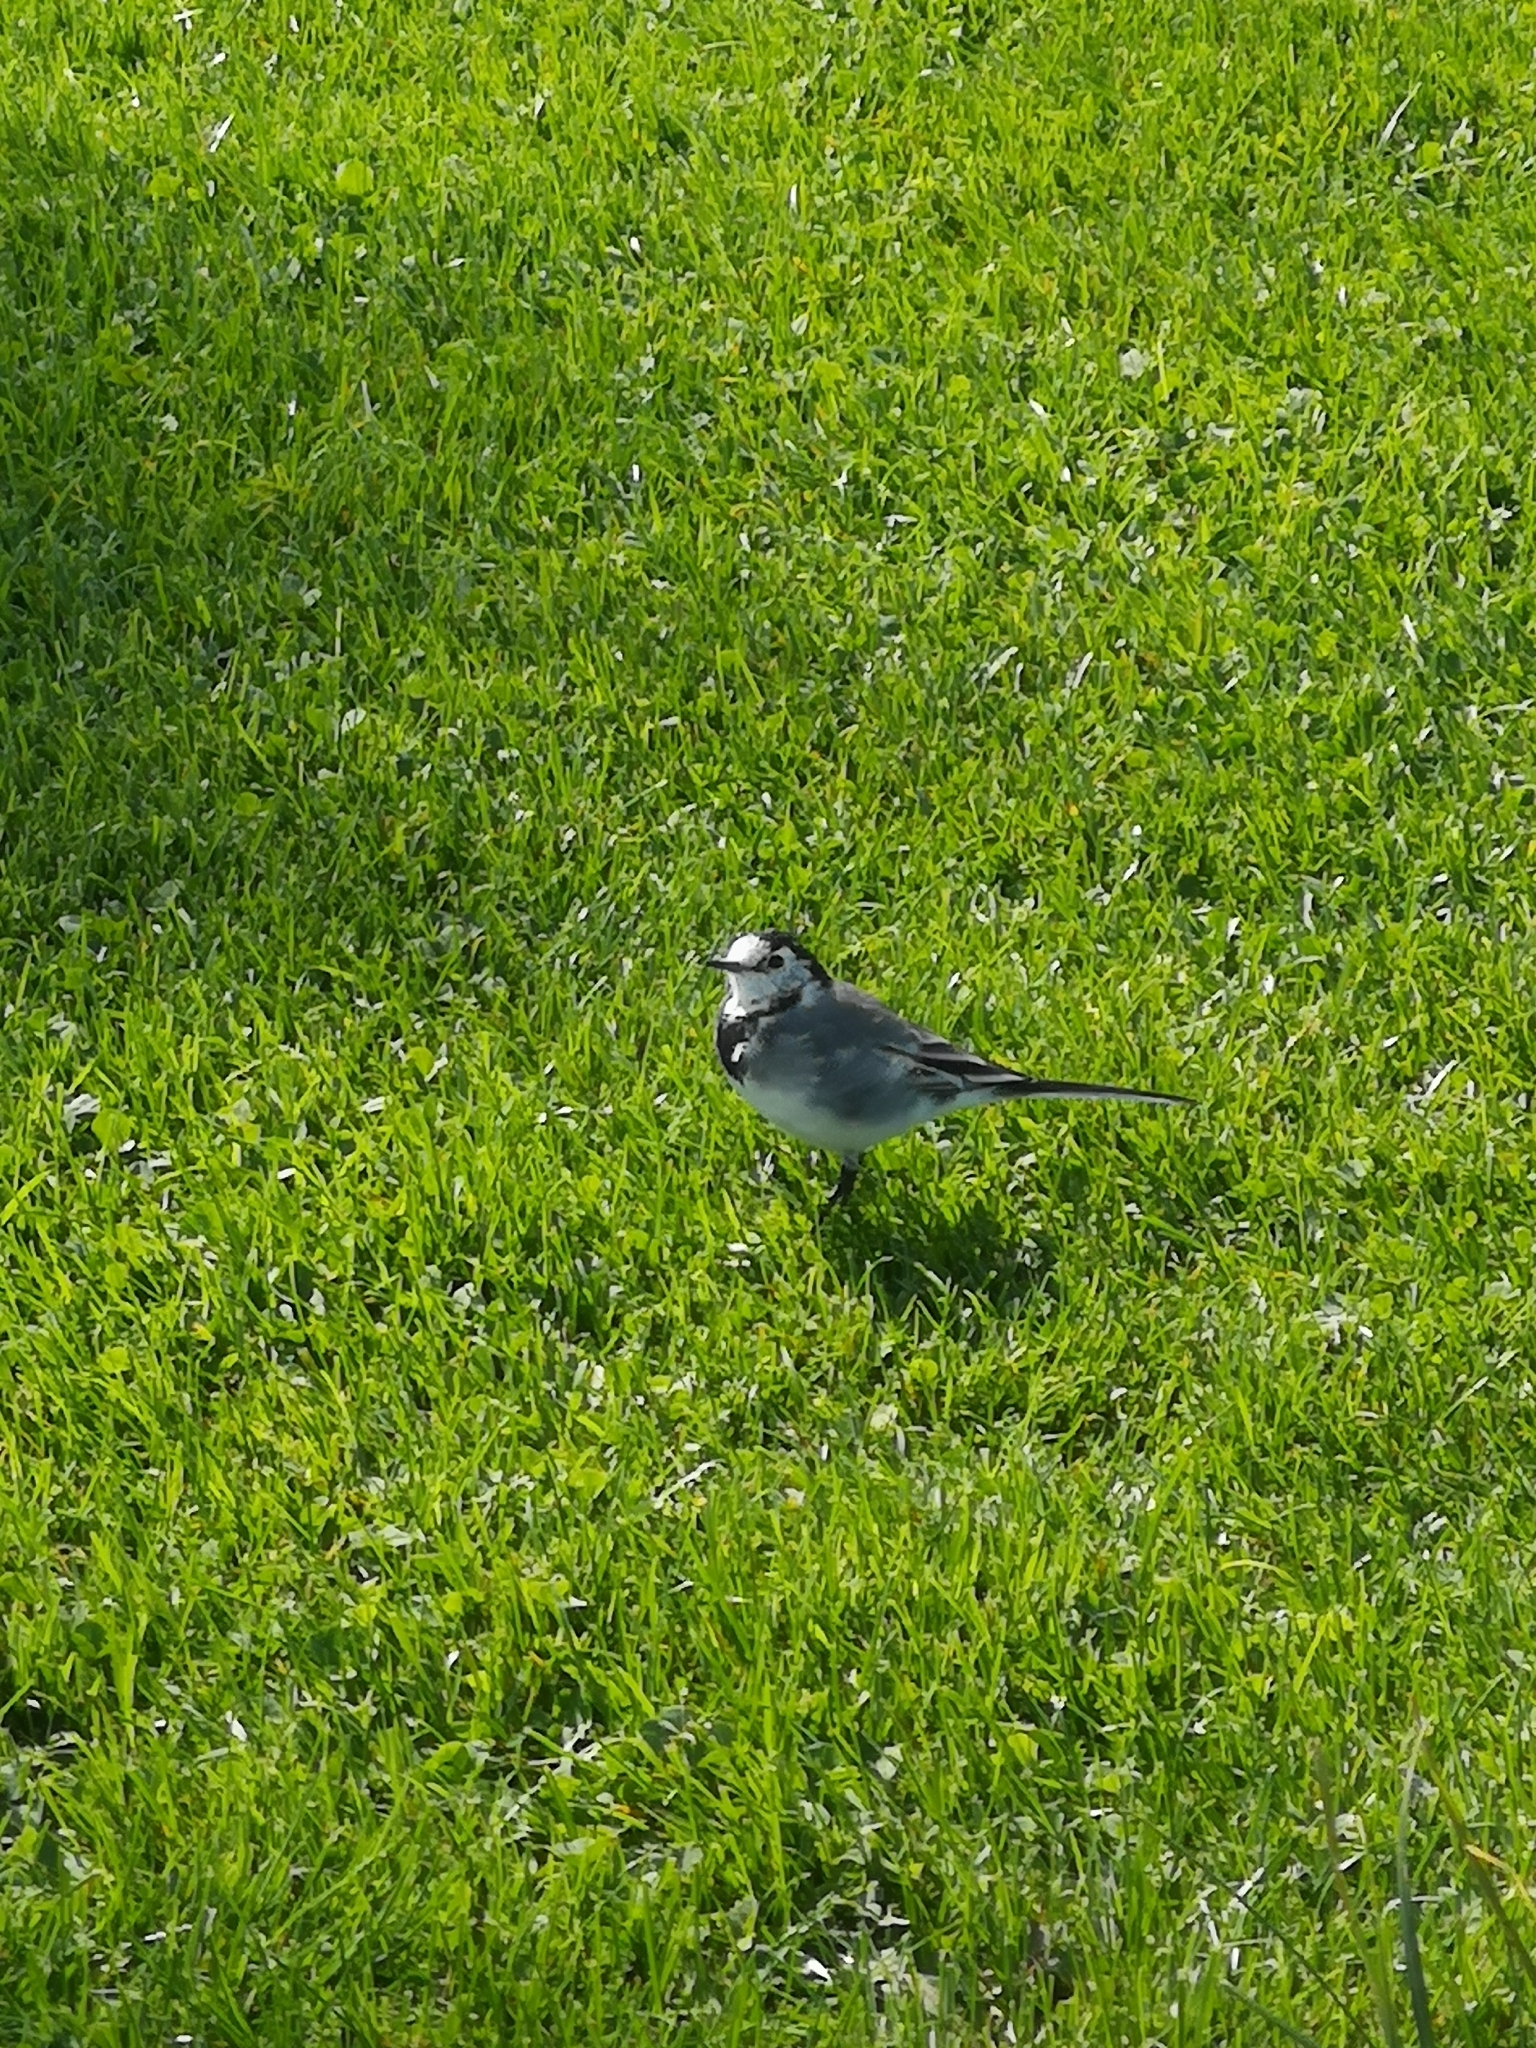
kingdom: Animalia
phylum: Chordata
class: Aves
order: Passeriformes
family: Motacillidae
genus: Motacilla
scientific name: Motacilla alba
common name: White wagtail
